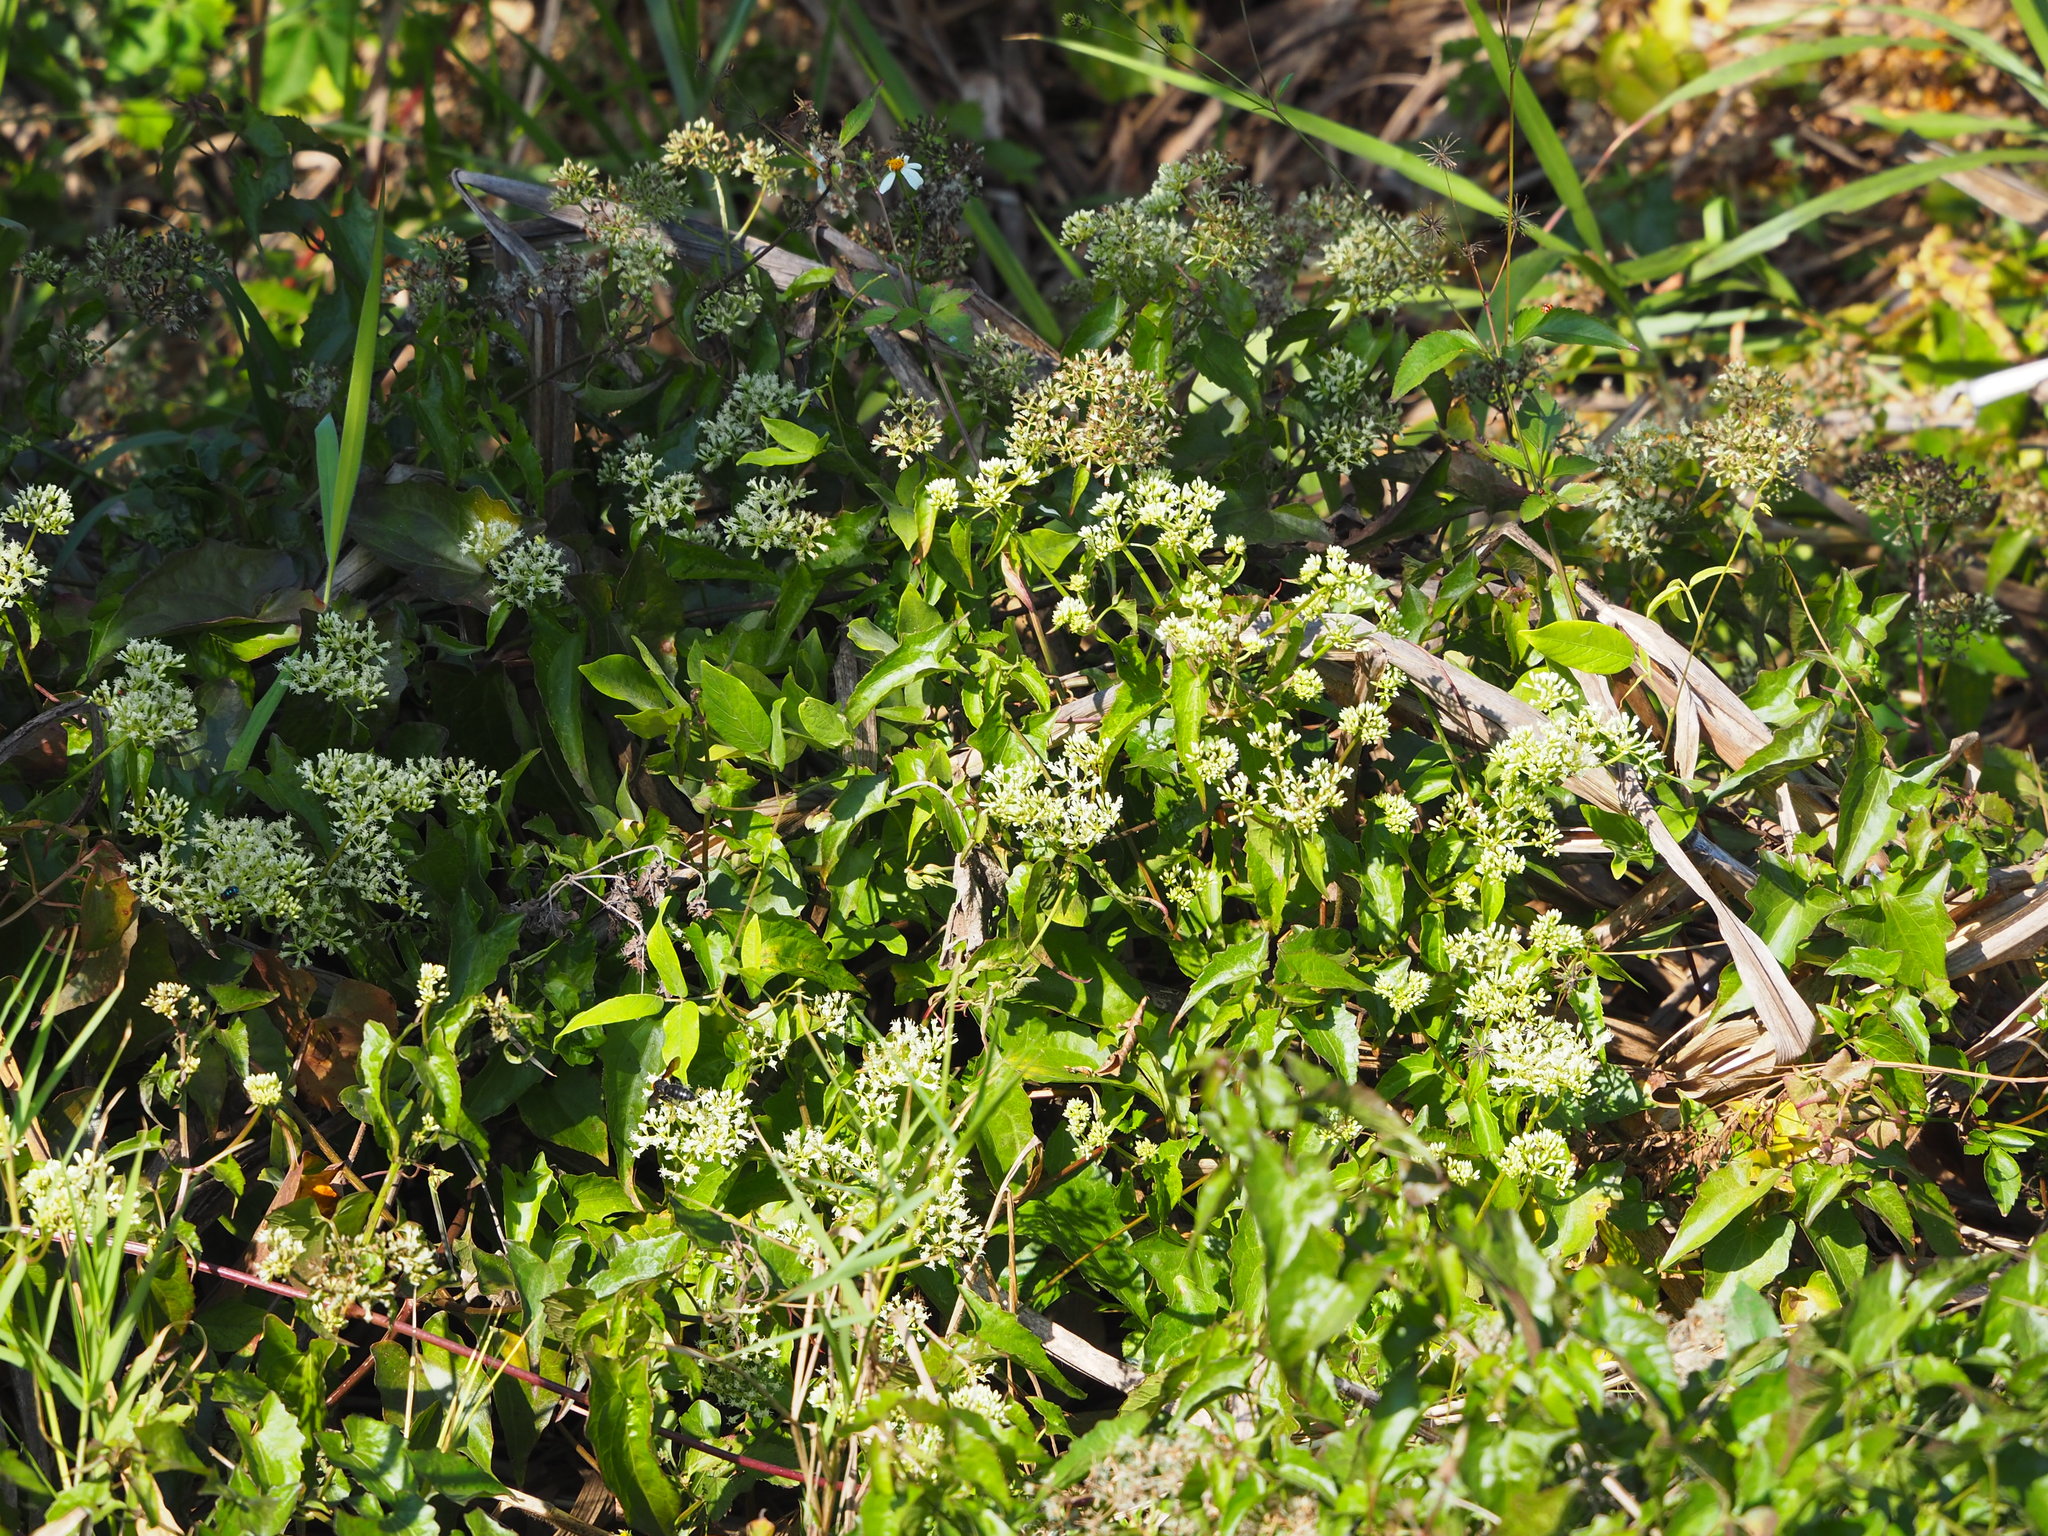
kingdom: Plantae
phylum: Tracheophyta
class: Magnoliopsida
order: Asterales
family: Asteraceae
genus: Mikania
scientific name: Mikania micrantha
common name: Mile-a-minute
